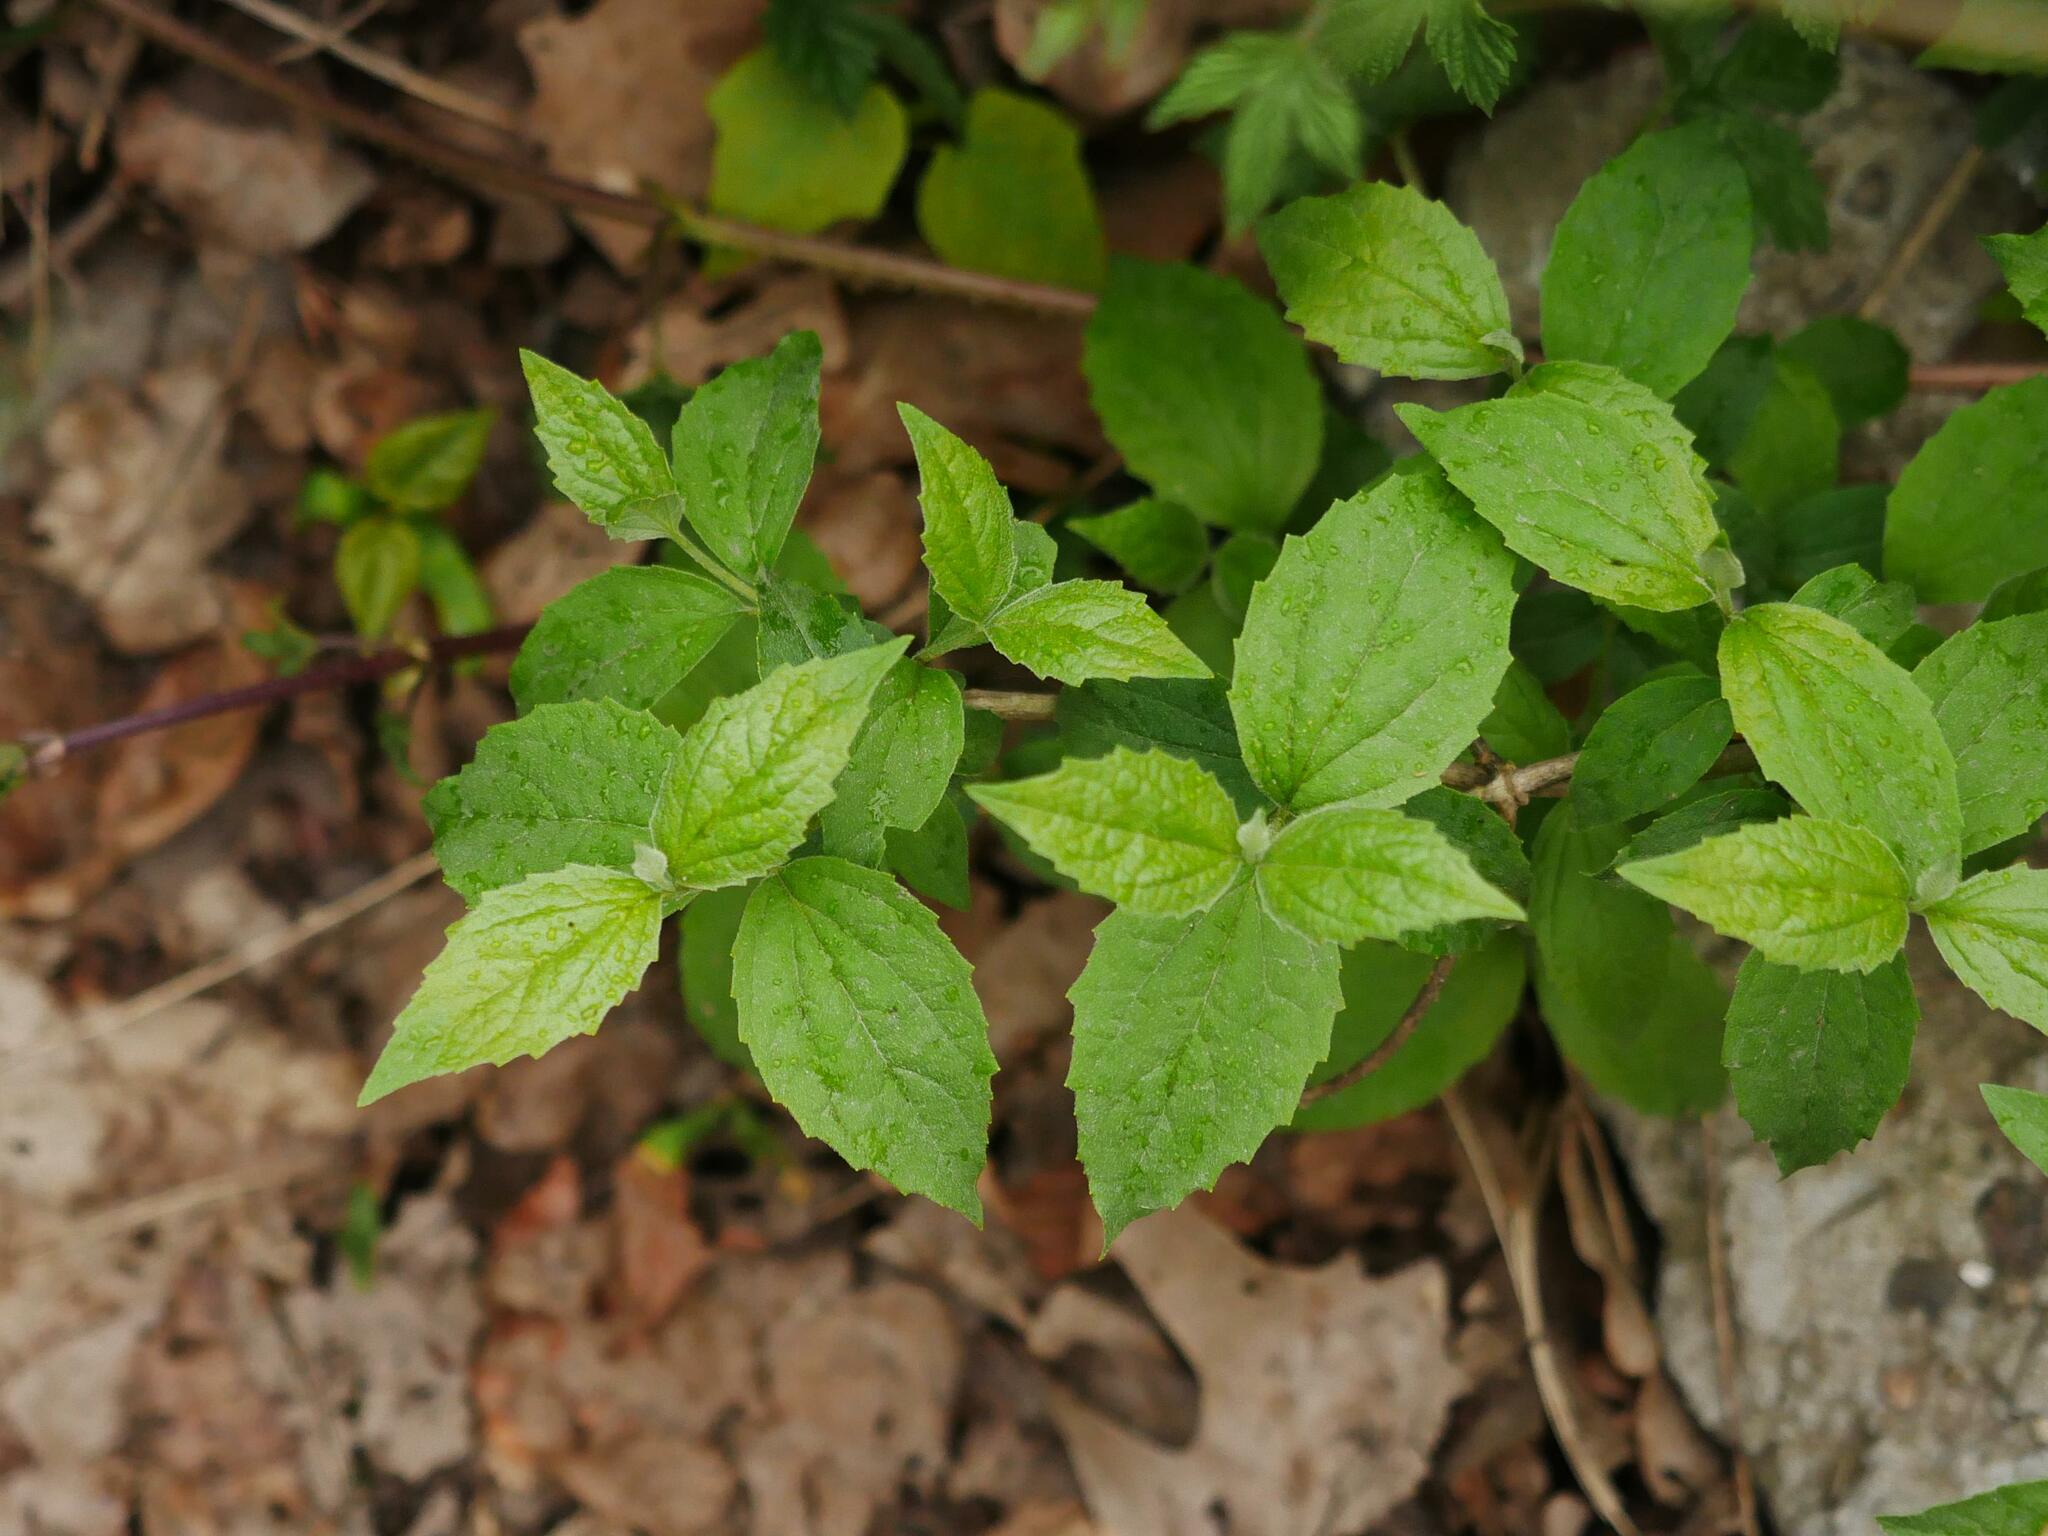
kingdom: Plantae
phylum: Tracheophyta
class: Magnoliopsida
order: Cornales
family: Hydrangeaceae
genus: Philadelphus
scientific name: Philadelphus coronarius
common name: Mock orange
